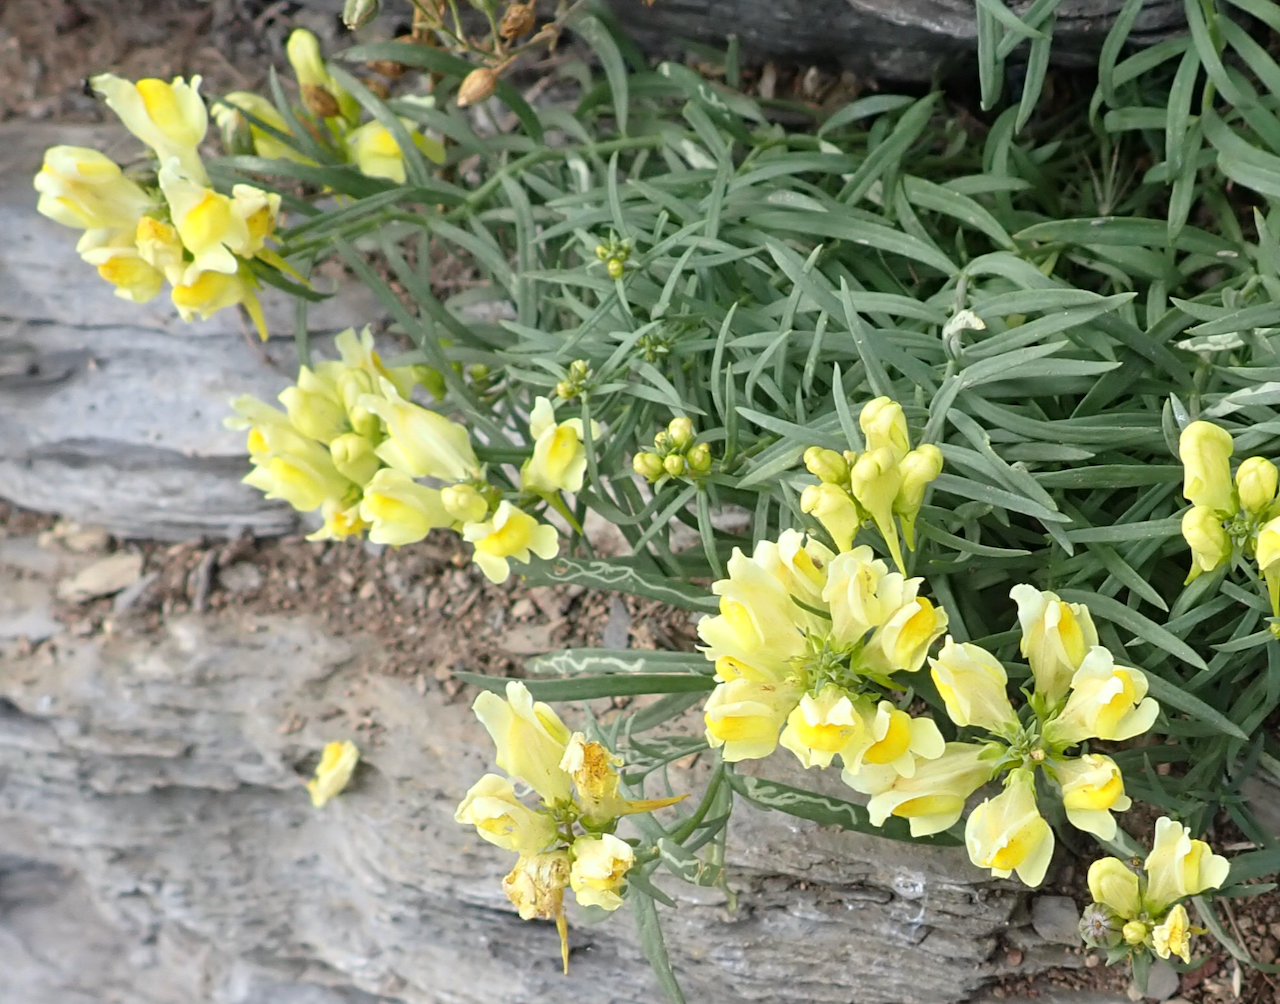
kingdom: Plantae
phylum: Tracheophyta
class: Magnoliopsida
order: Lamiales
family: Plantaginaceae
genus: Linaria
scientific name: Linaria vulgaris
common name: Butter and eggs
